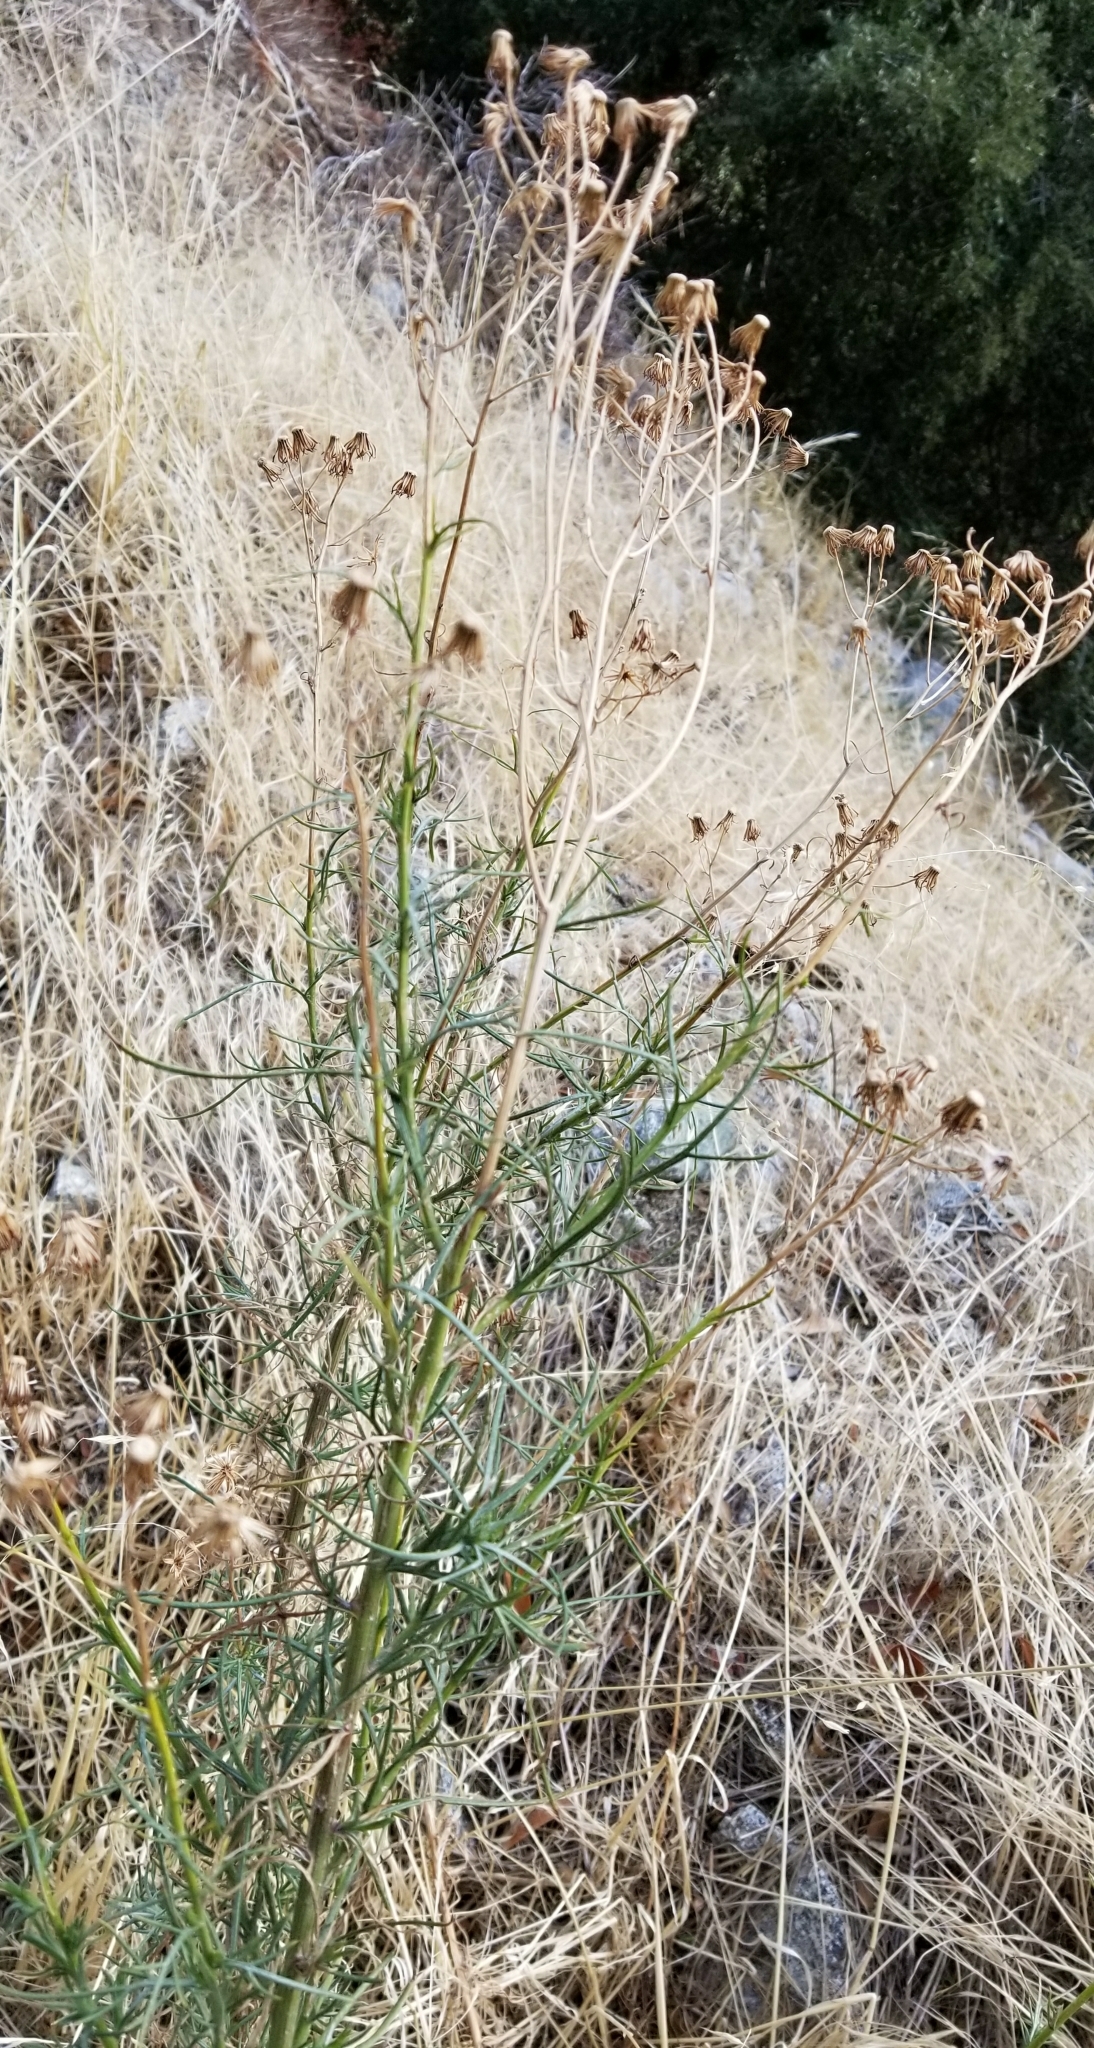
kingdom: Plantae
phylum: Tracheophyta
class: Magnoliopsida
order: Asterales
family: Asteraceae
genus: Senecio
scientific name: Senecio flaccidus
